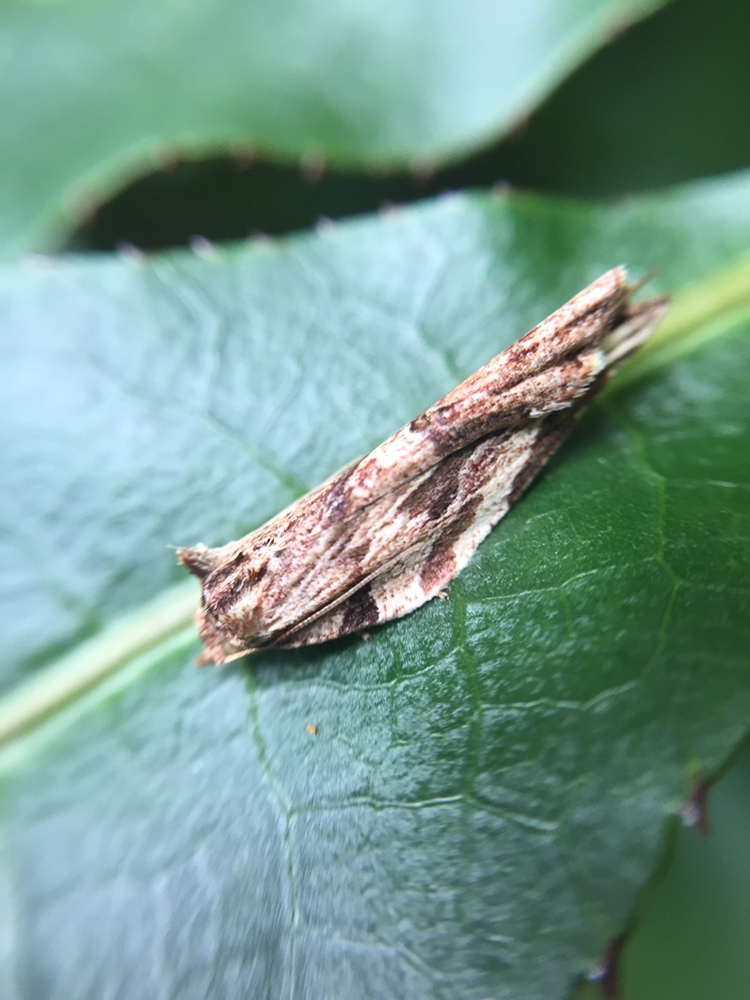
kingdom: Animalia
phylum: Arthropoda
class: Insecta
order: Lepidoptera
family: Tortricidae
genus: Epalxiphora
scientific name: Epalxiphora axenana
